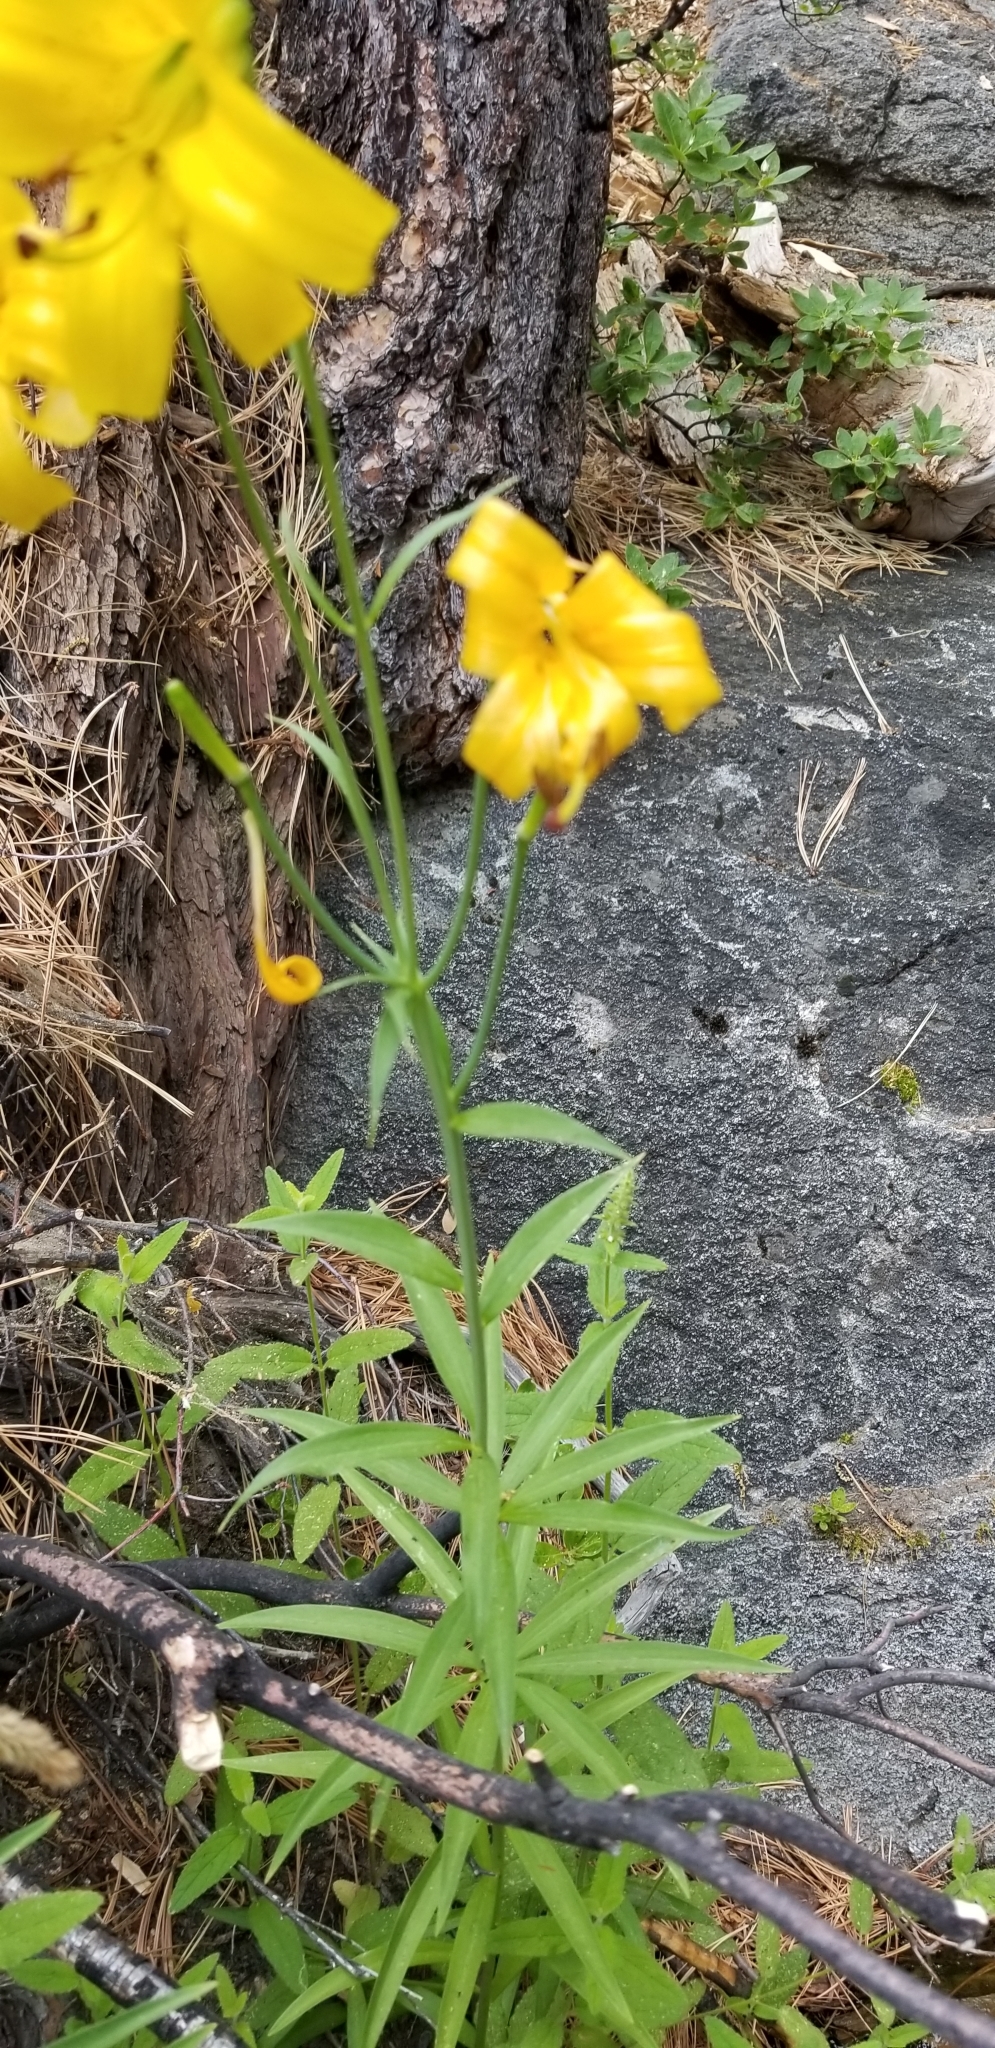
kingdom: Plantae
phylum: Tracheophyta
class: Liliopsida
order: Liliales
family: Liliaceae
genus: Lilium
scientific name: Lilium parryi
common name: Lemon lily
